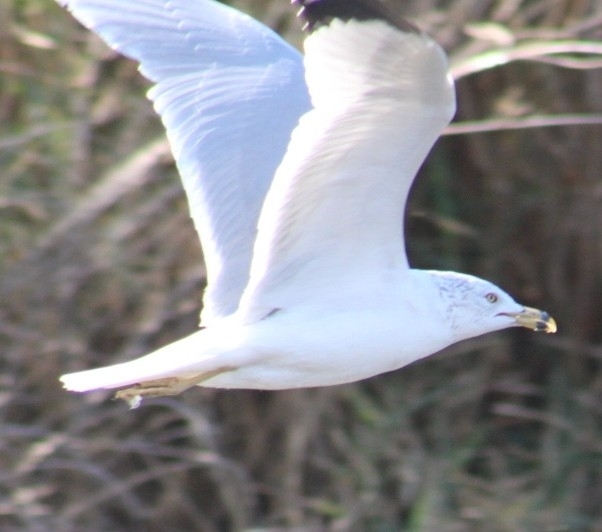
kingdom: Animalia
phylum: Chordata
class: Aves
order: Charadriiformes
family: Laridae
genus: Larus
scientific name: Larus delawarensis
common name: Ring-billed gull
